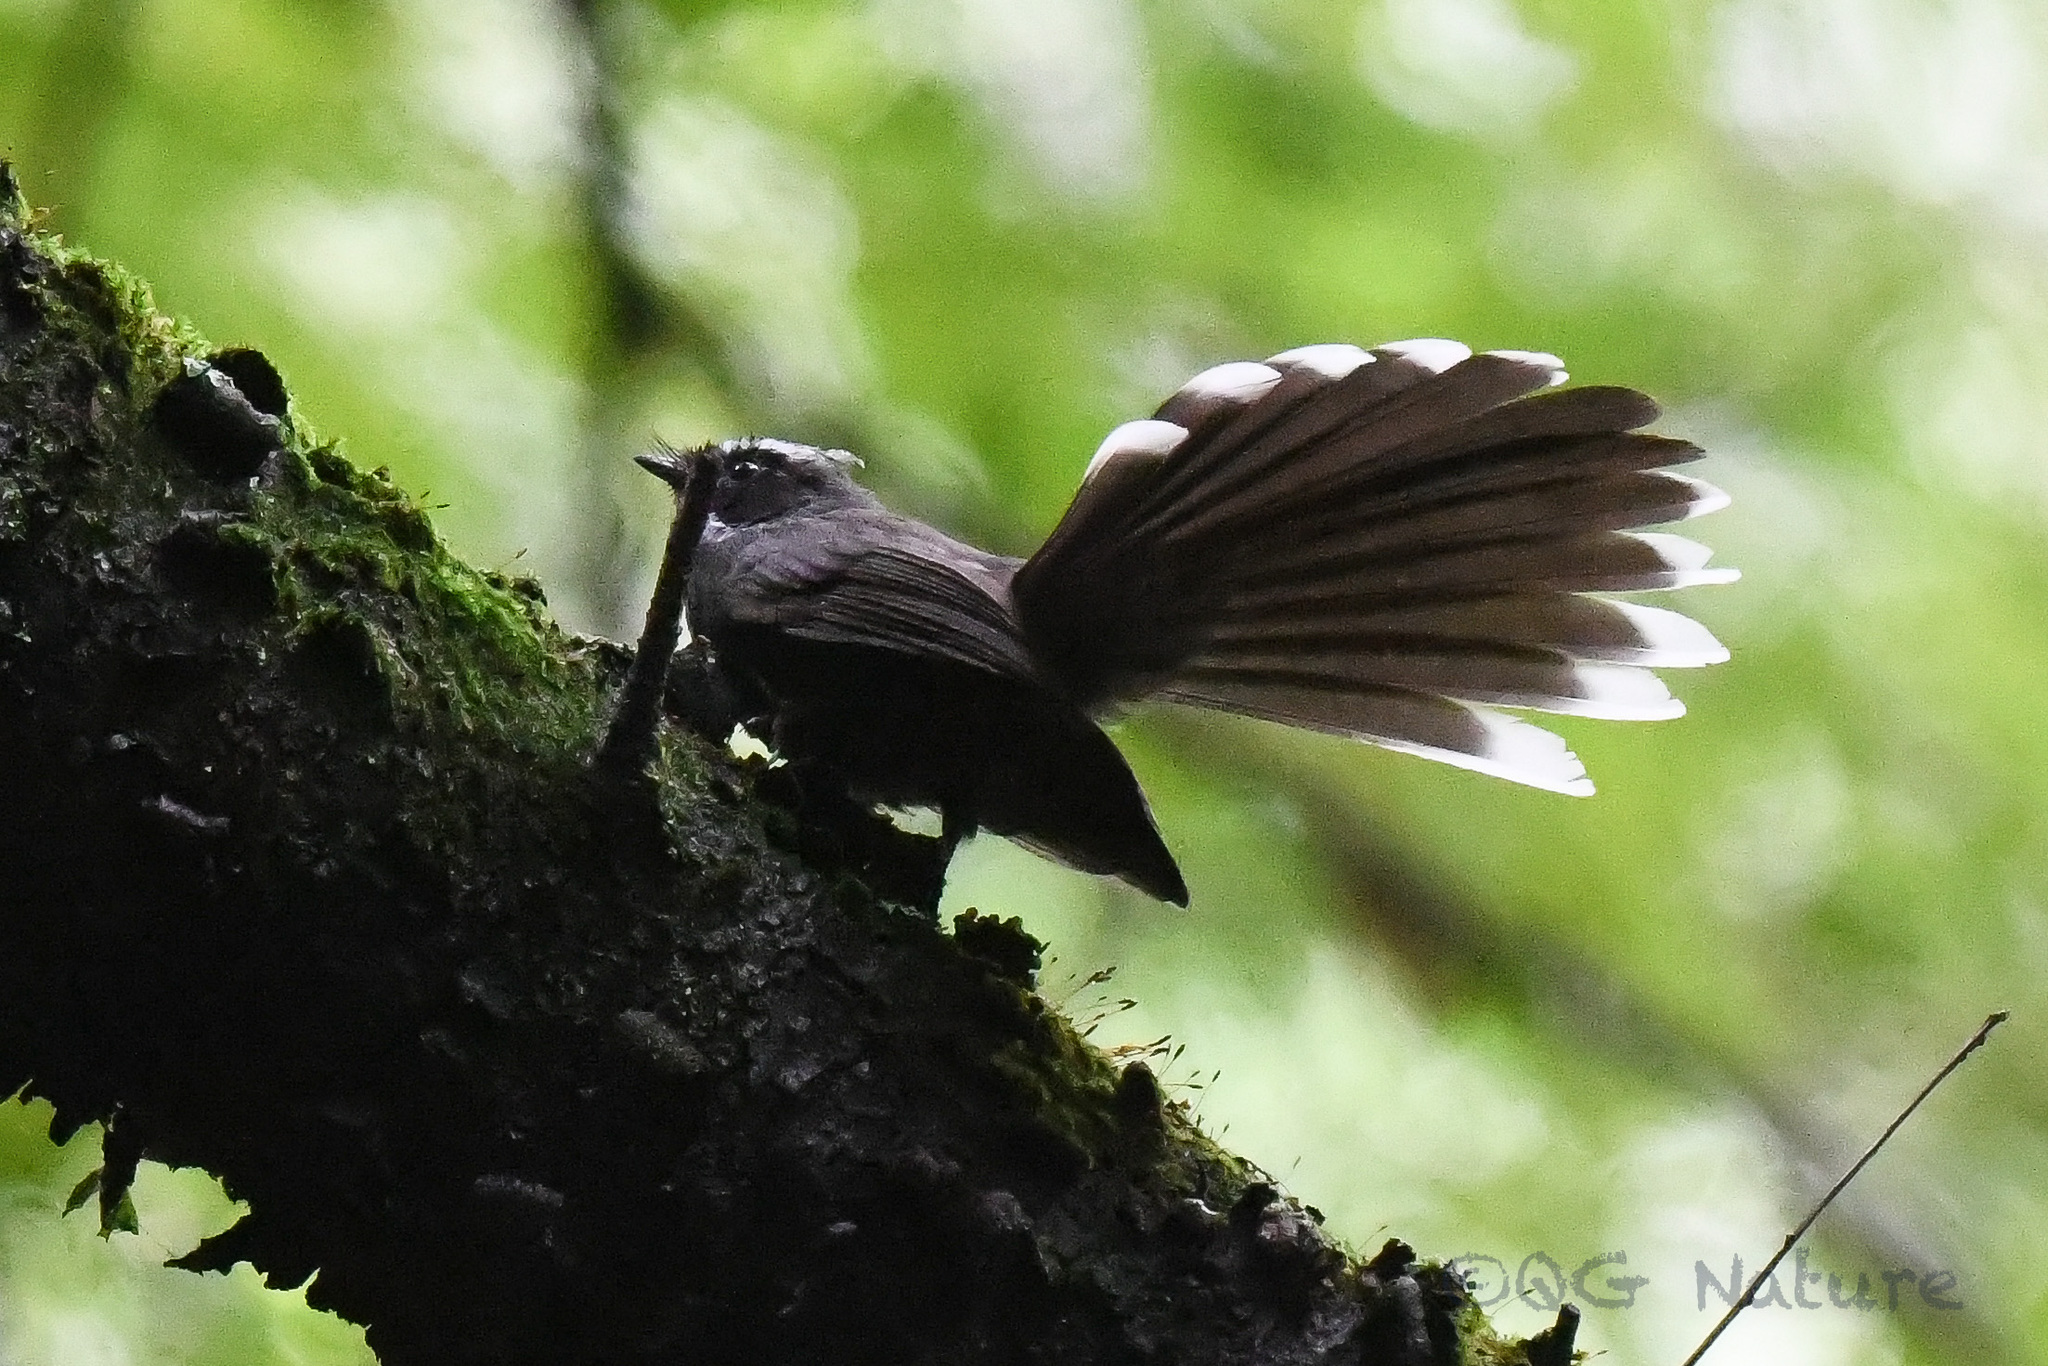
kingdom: Animalia
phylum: Chordata
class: Aves
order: Passeriformes
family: Rhipiduridae
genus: Rhipidura
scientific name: Rhipidura albicollis
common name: White-throated fantail
